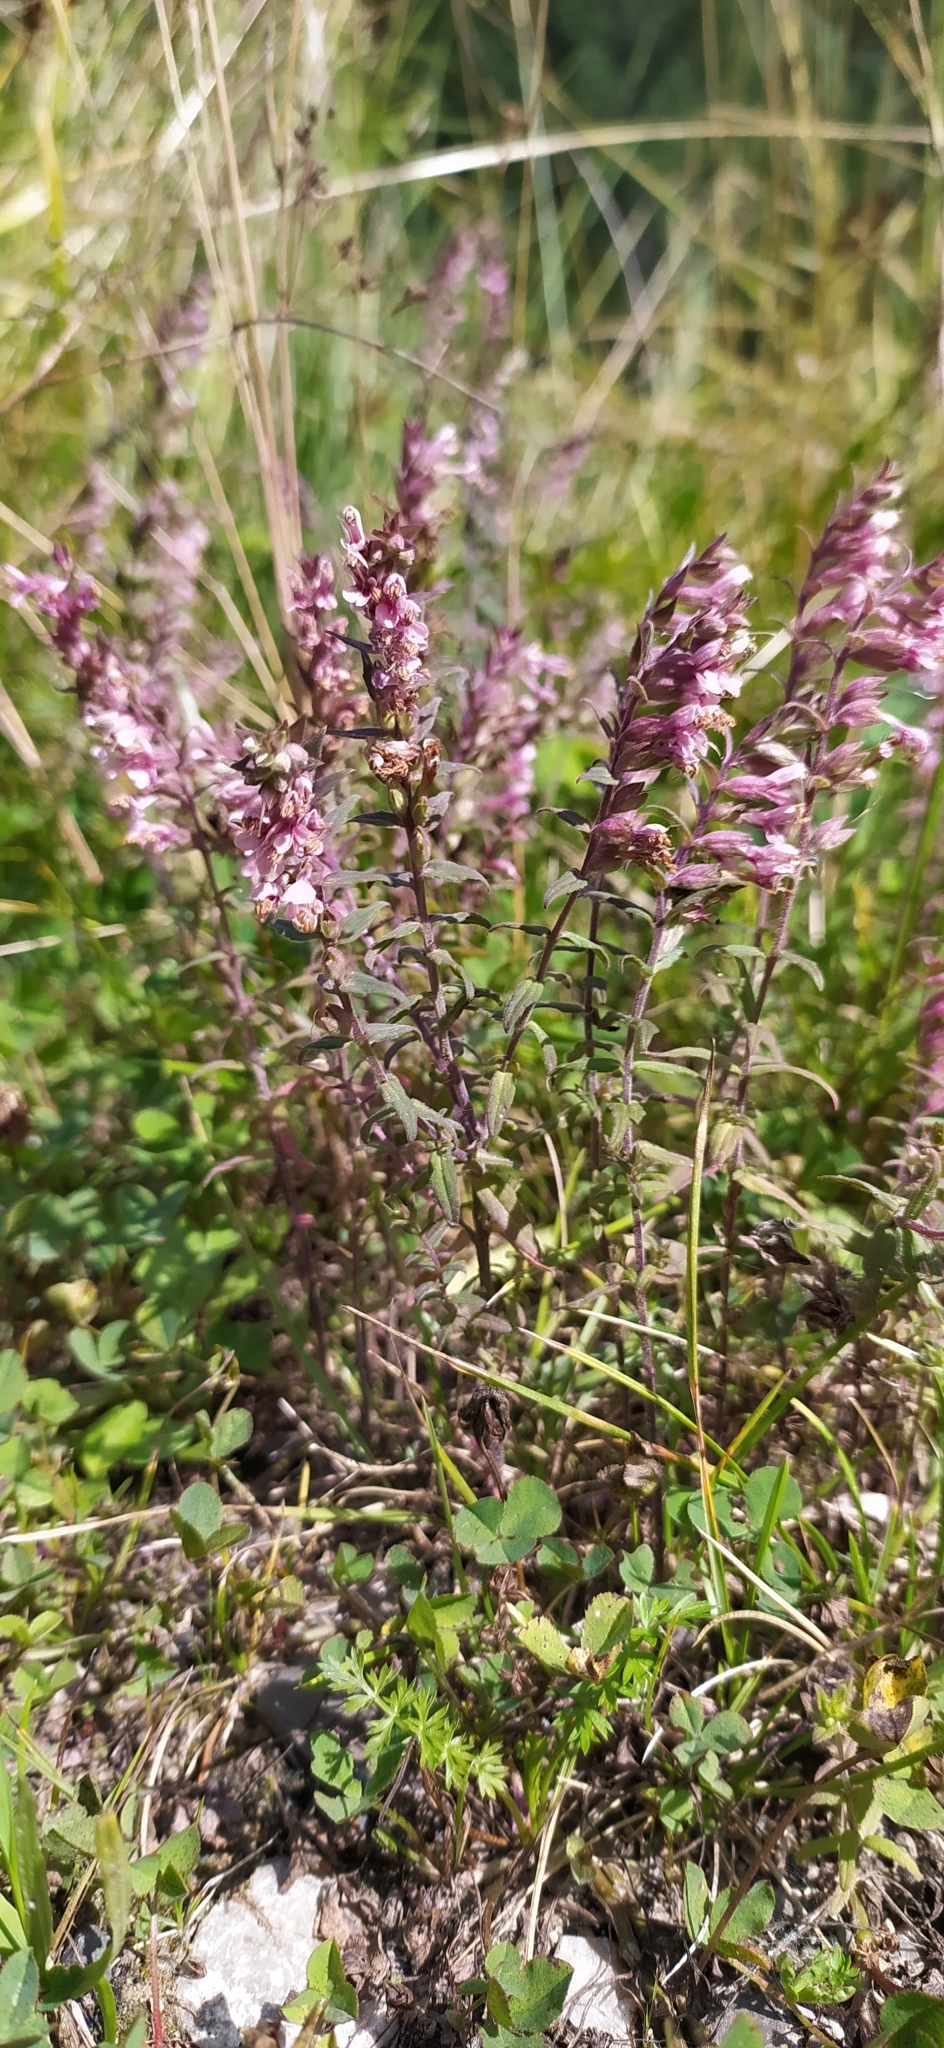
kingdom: Plantae
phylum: Tracheophyta
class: Magnoliopsida
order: Lamiales
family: Orobanchaceae
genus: Odontites
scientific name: Odontites vulgaris
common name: Broomrape
